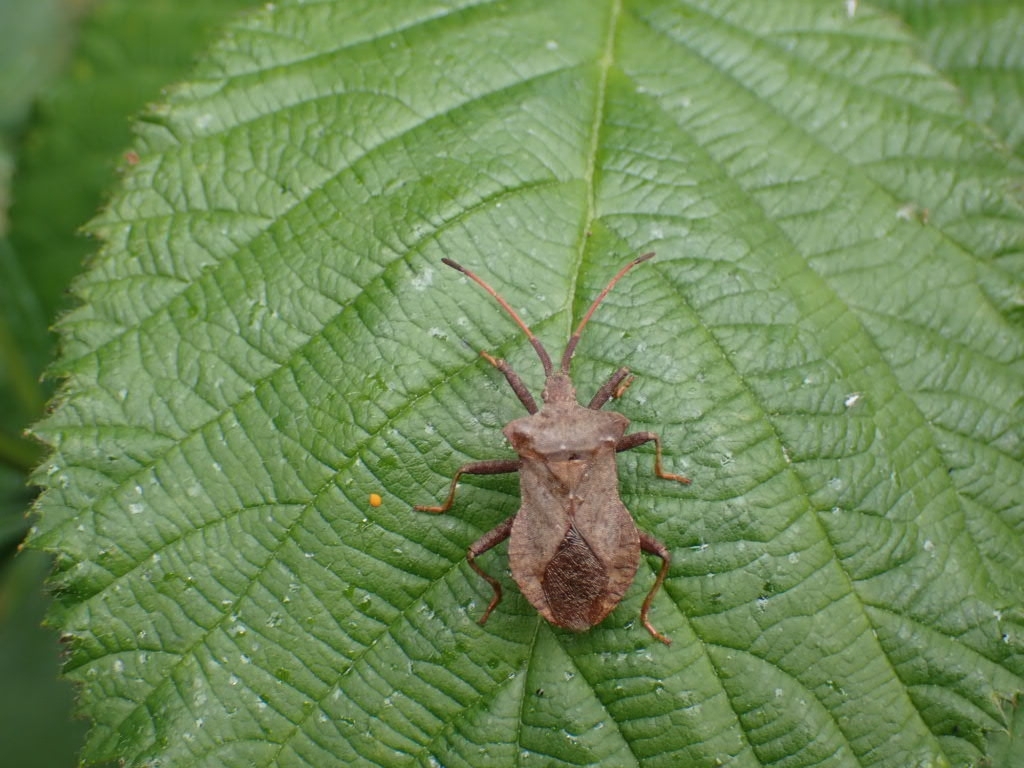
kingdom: Animalia
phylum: Arthropoda
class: Insecta
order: Hemiptera
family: Coreidae
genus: Coreus
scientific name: Coreus marginatus
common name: Dock bug
